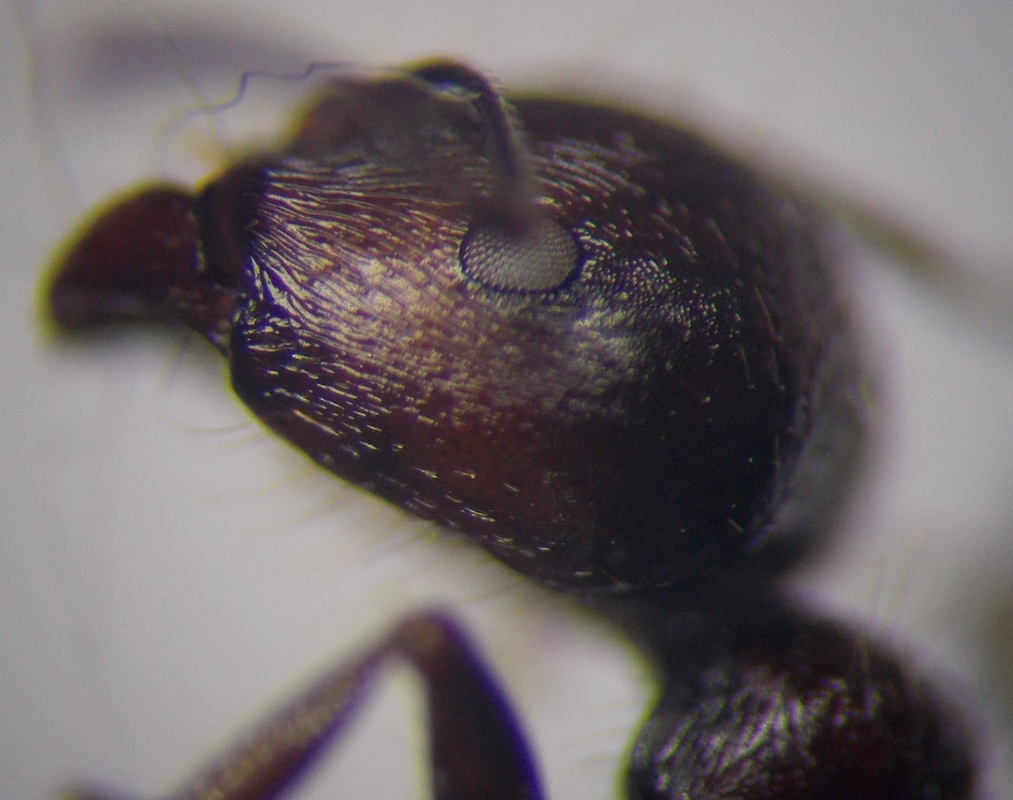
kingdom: Animalia
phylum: Arthropoda
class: Insecta
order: Hymenoptera
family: Formicidae
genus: Messor
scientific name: Messor structor
